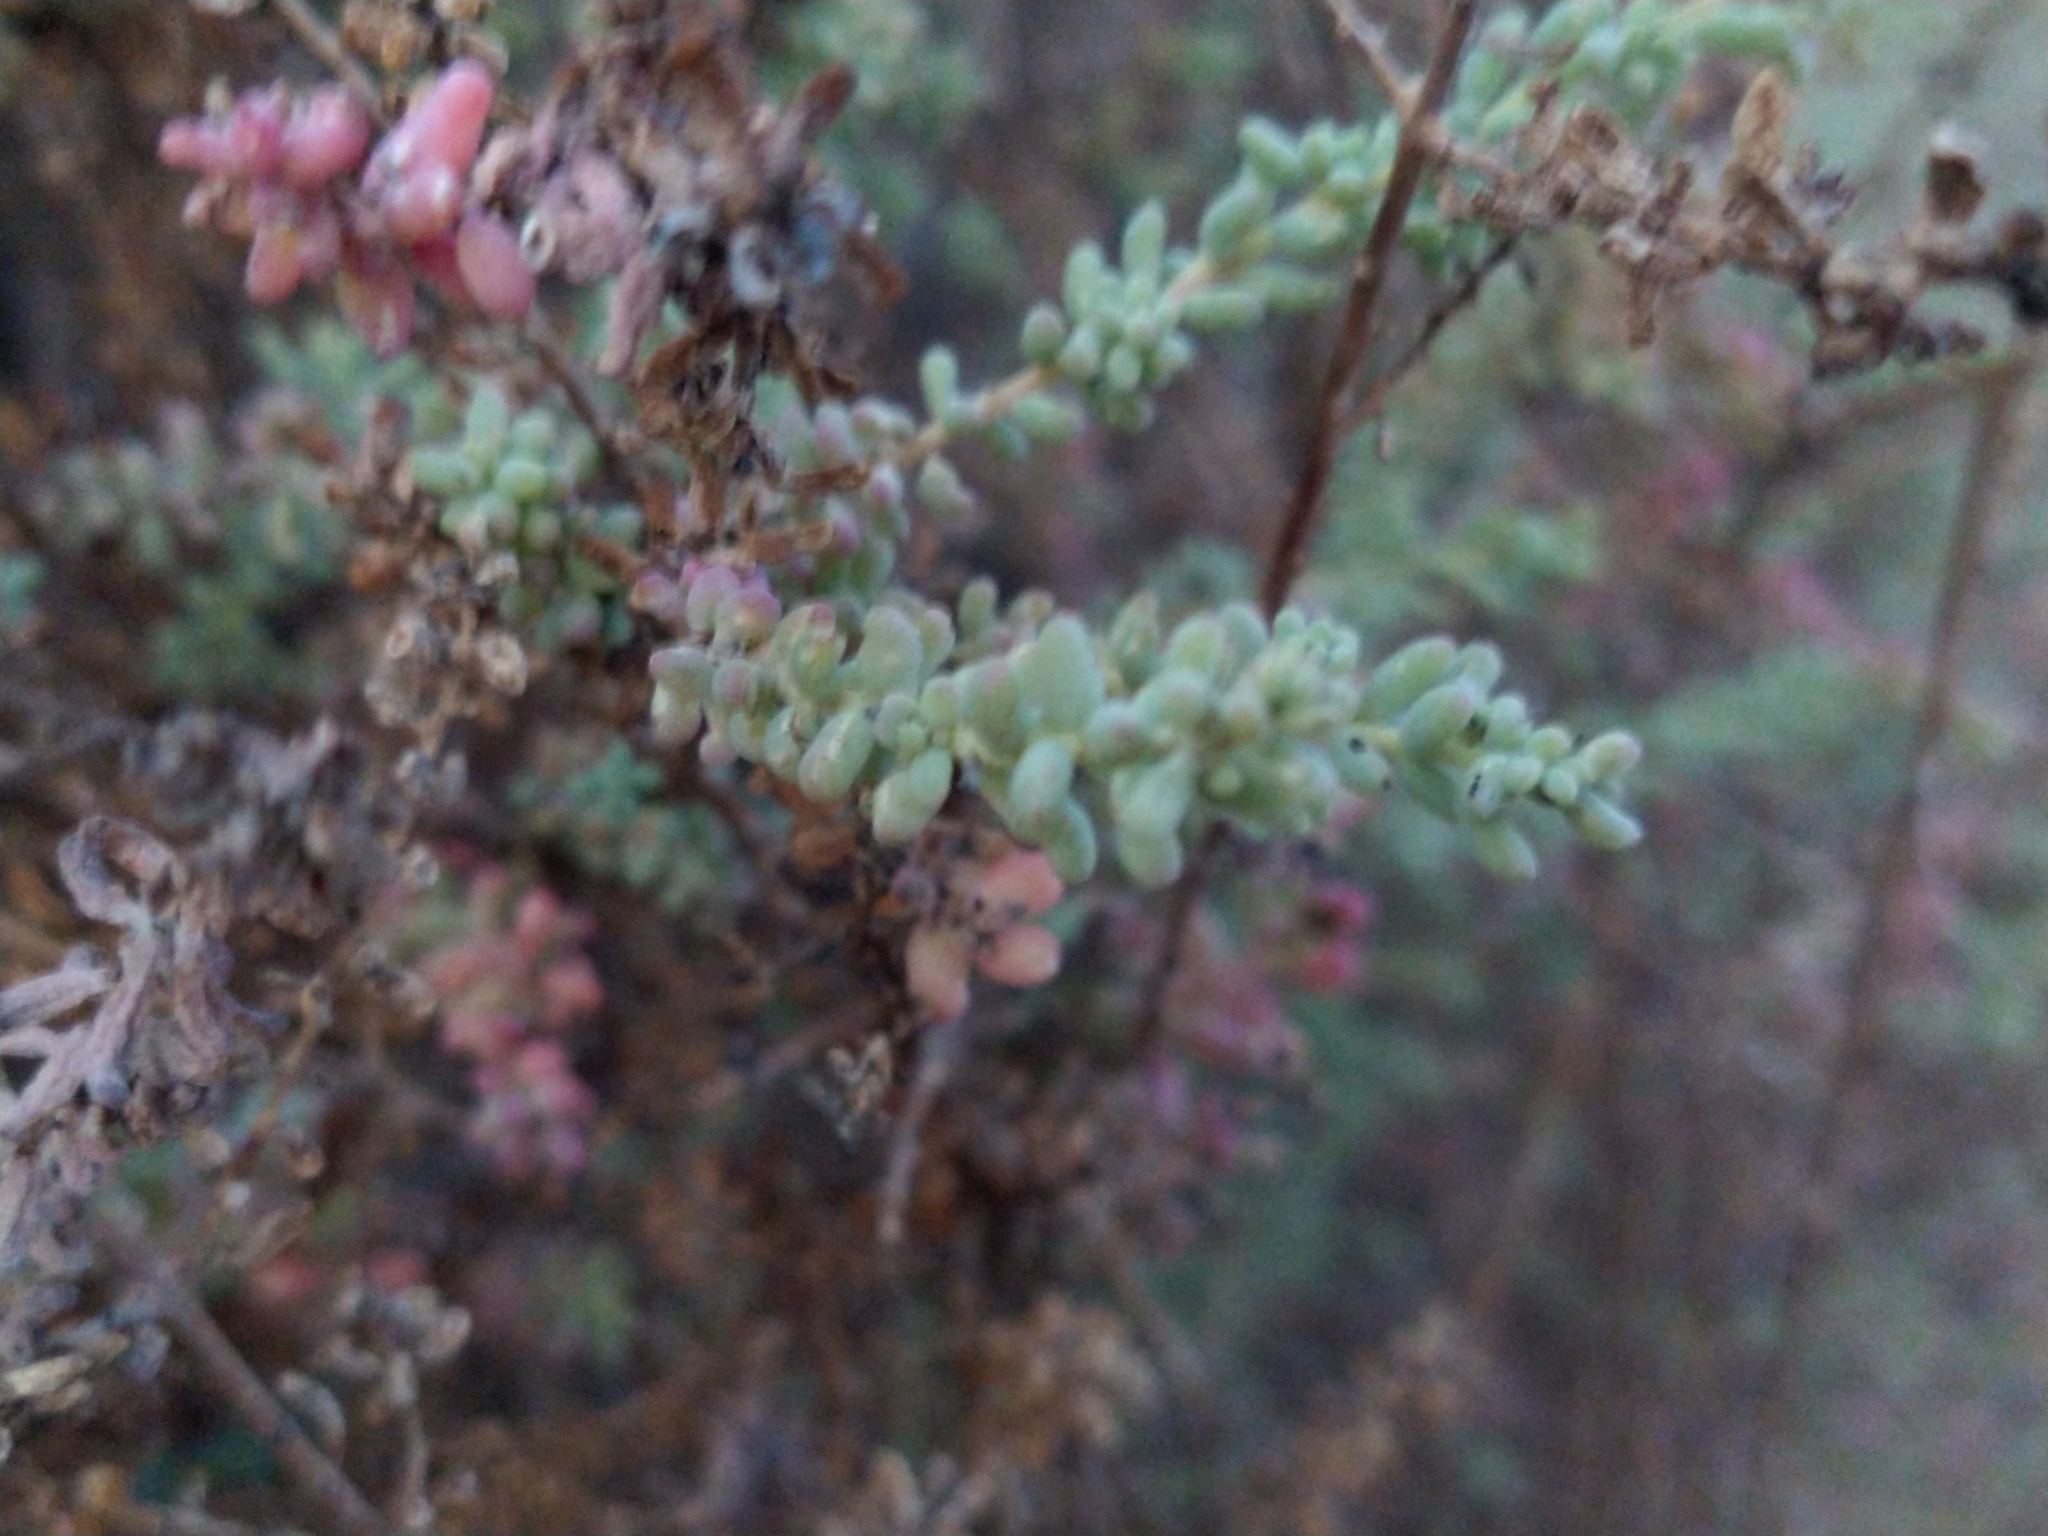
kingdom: Plantae
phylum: Tracheophyta
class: Magnoliopsida
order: Caryophyllales
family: Amaranthaceae
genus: Suaeda
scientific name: Suaeda nigra
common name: Bush seepweed
